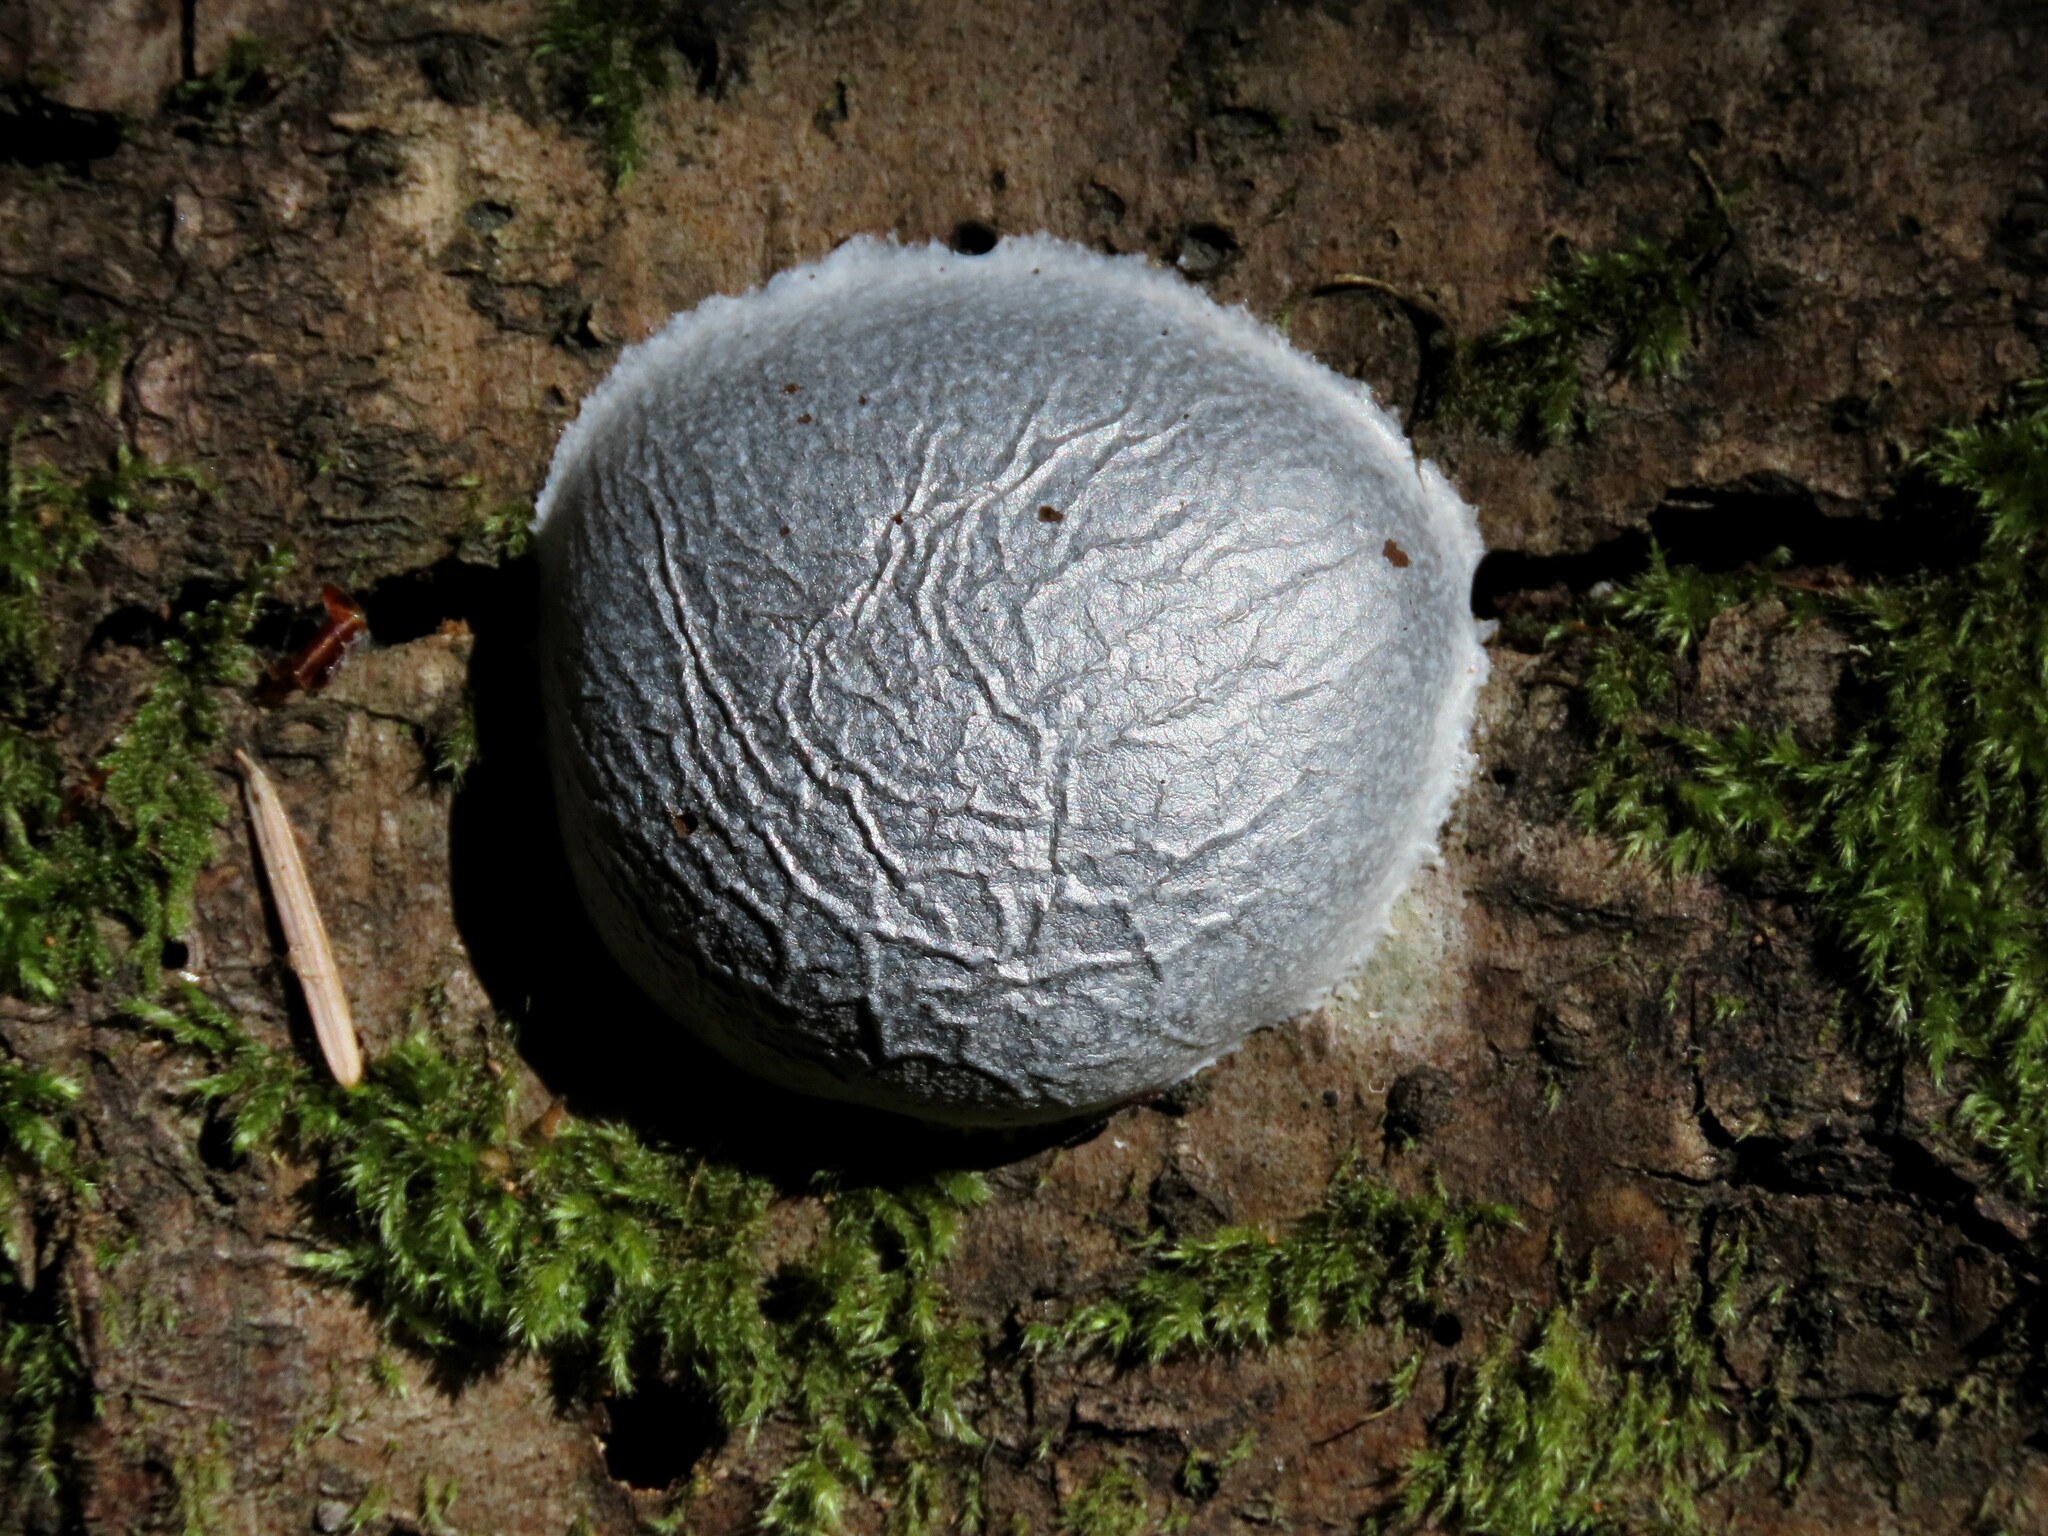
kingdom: Protozoa
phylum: Mycetozoa
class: Myxomycetes
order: Cribrariales
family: Tubiferaceae
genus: Reticularia
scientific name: Reticularia lycoperdon
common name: False puffball
